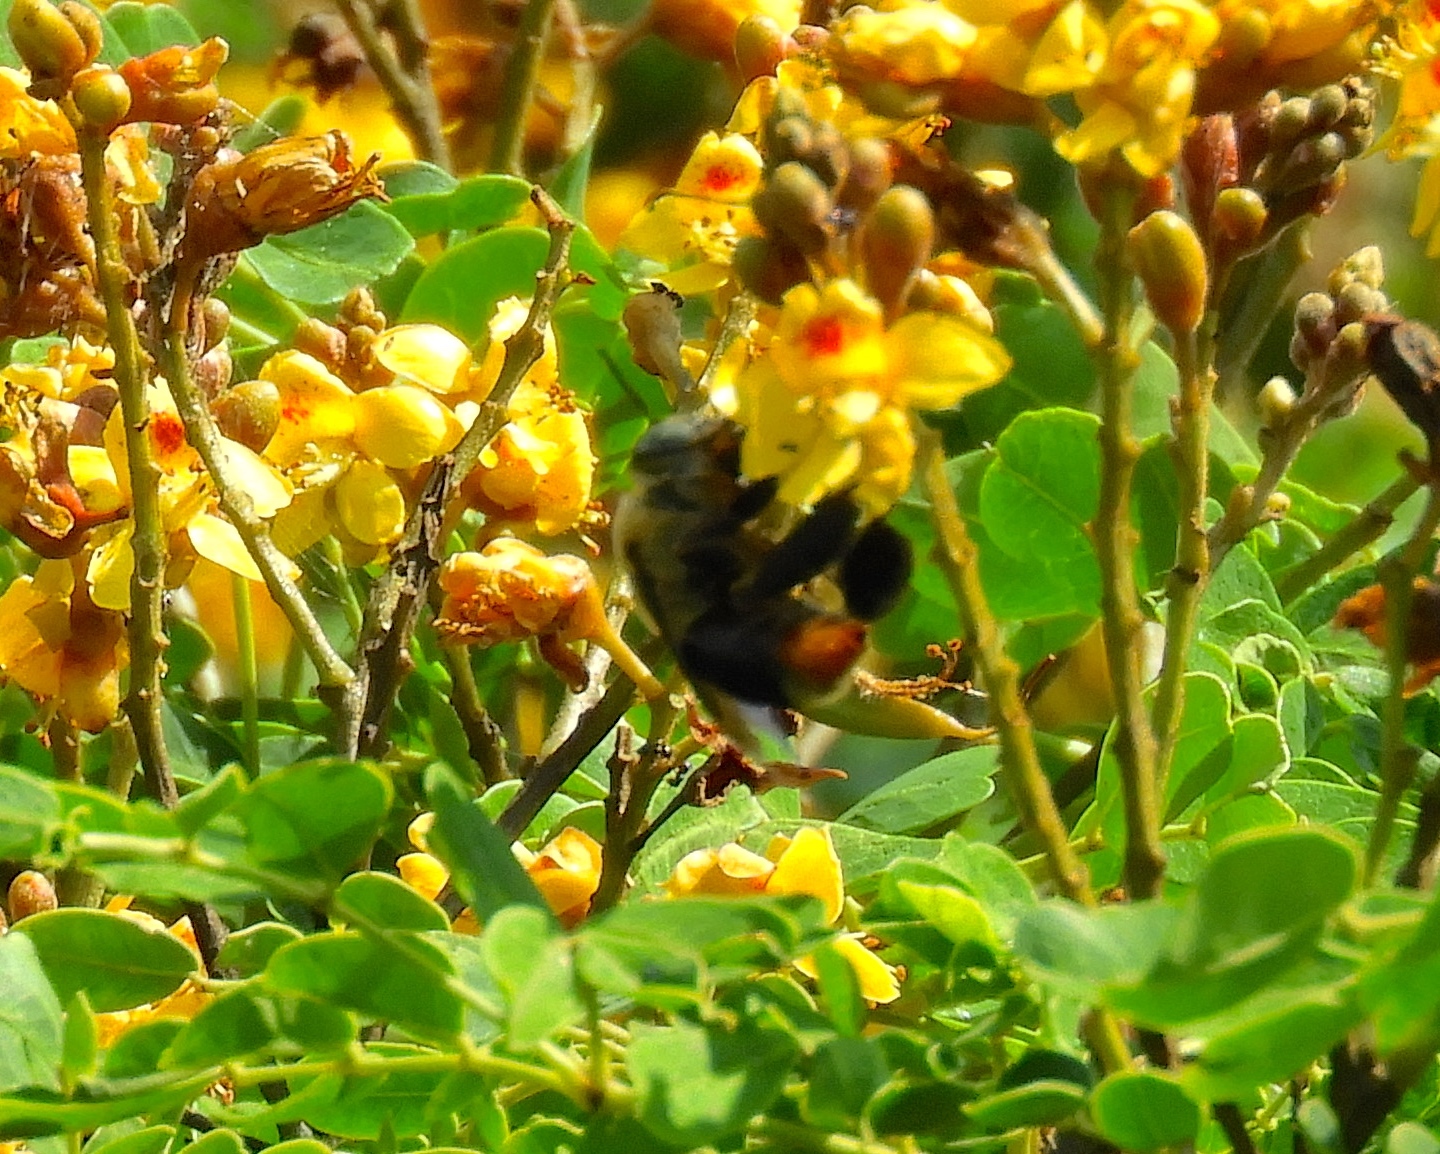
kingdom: Animalia
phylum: Arthropoda
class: Insecta
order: Hymenoptera
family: Apidae
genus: Centris
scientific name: Centris varia
